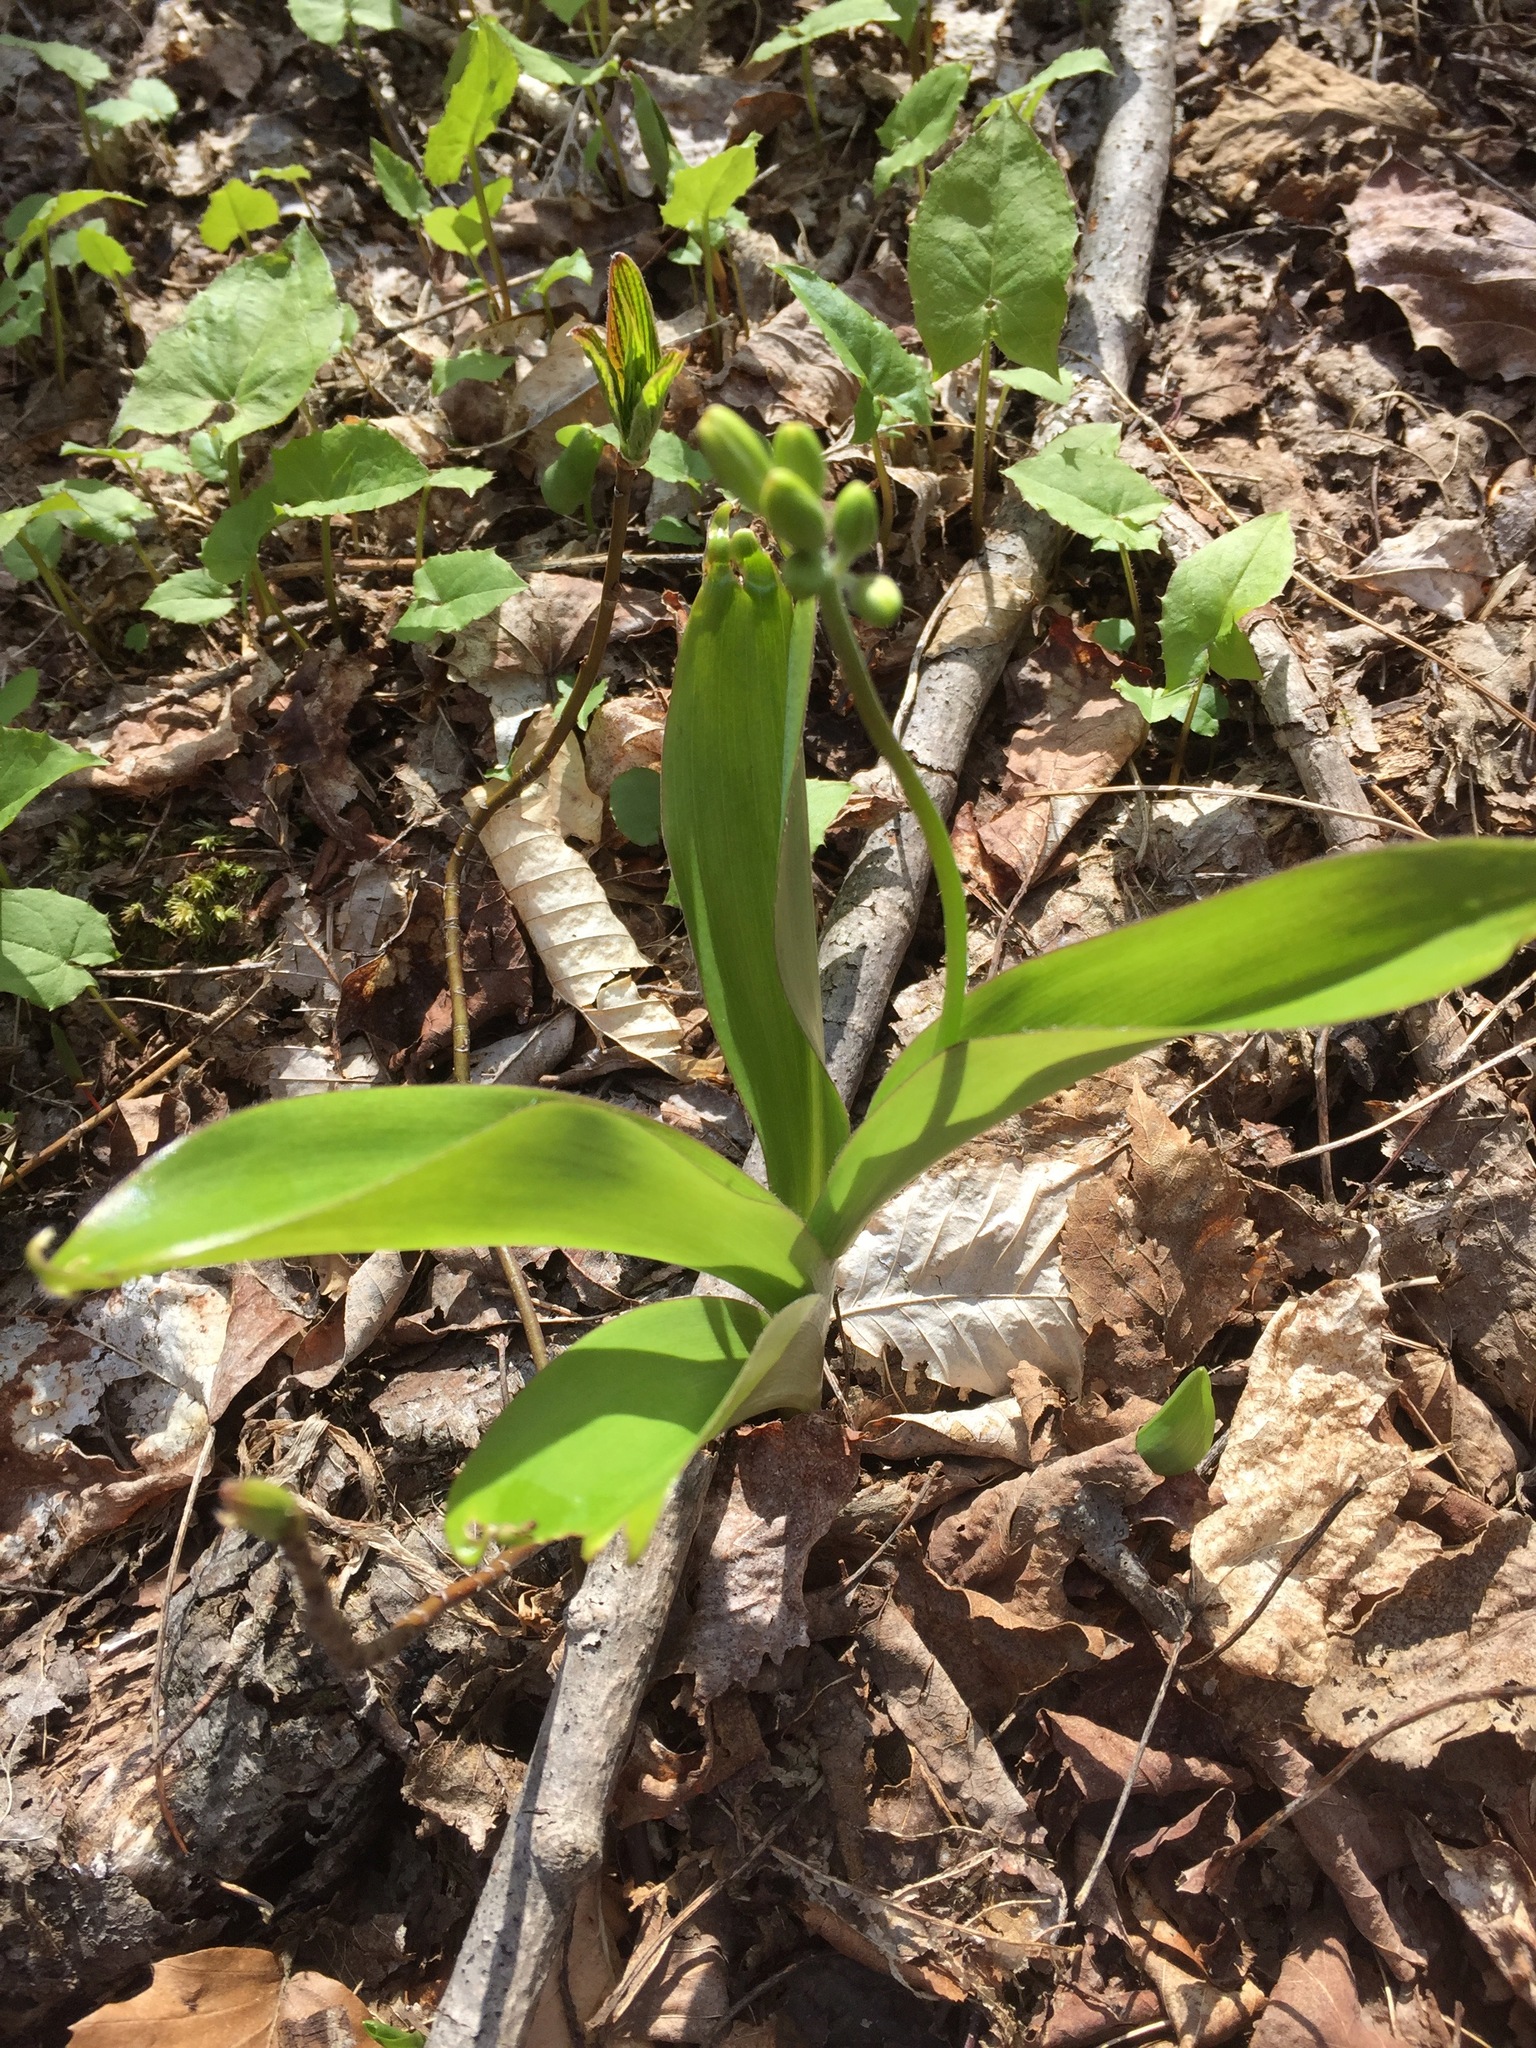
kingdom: Plantae
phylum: Tracheophyta
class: Liliopsida
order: Liliales
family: Liliaceae
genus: Clintonia
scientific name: Clintonia borealis
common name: Yellow clintonia
